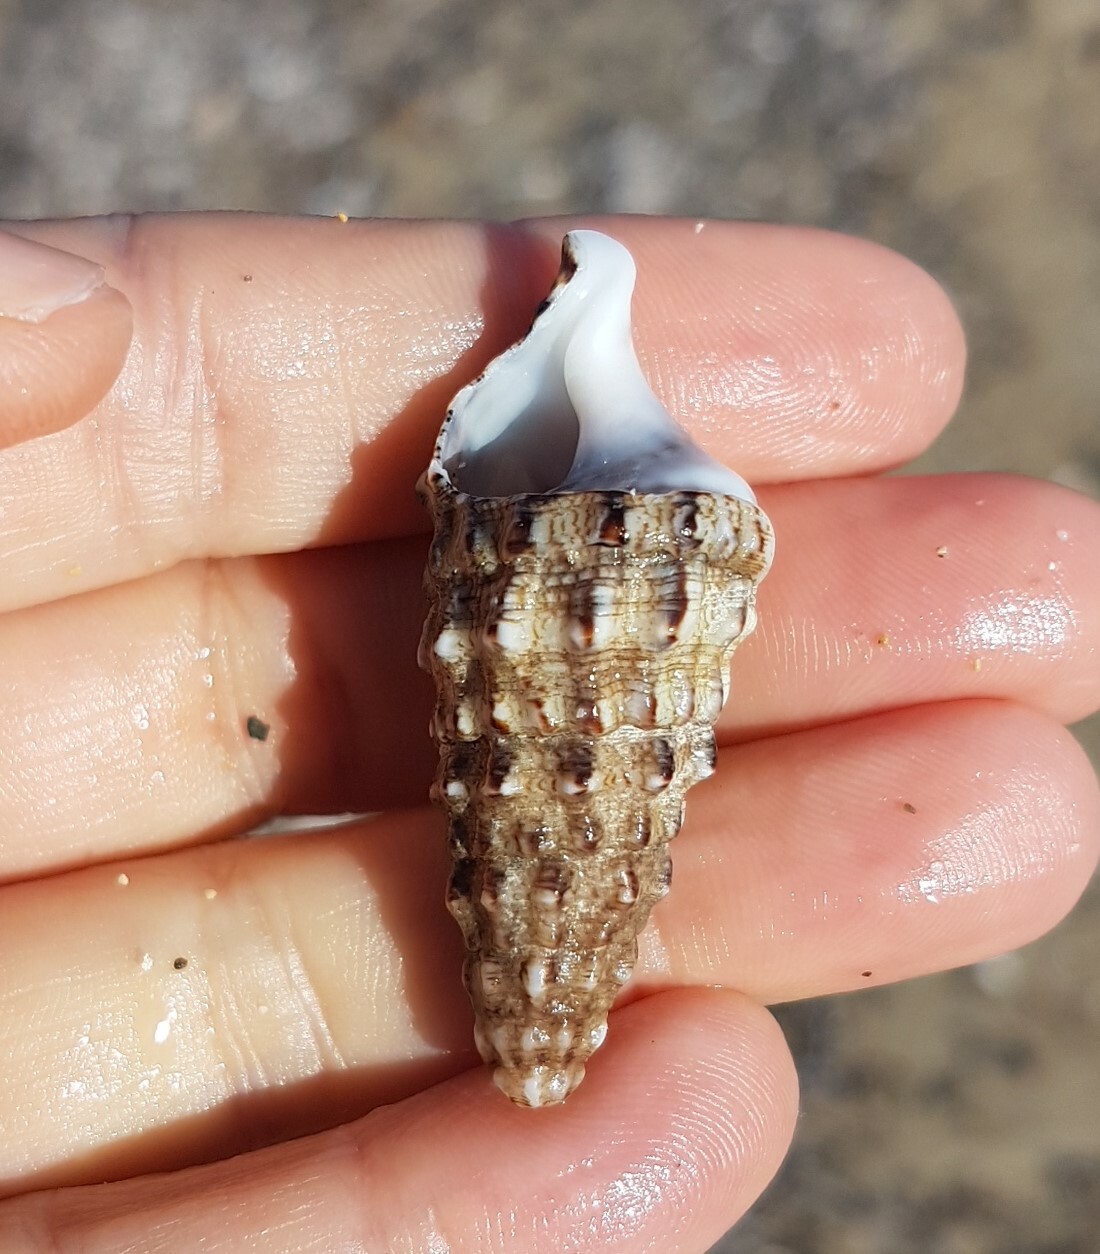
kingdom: Animalia
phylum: Mollusca
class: Gastropoda
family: Cerithiidae
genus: Cerithium
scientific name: Cerithium vulgatum
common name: European cerith
